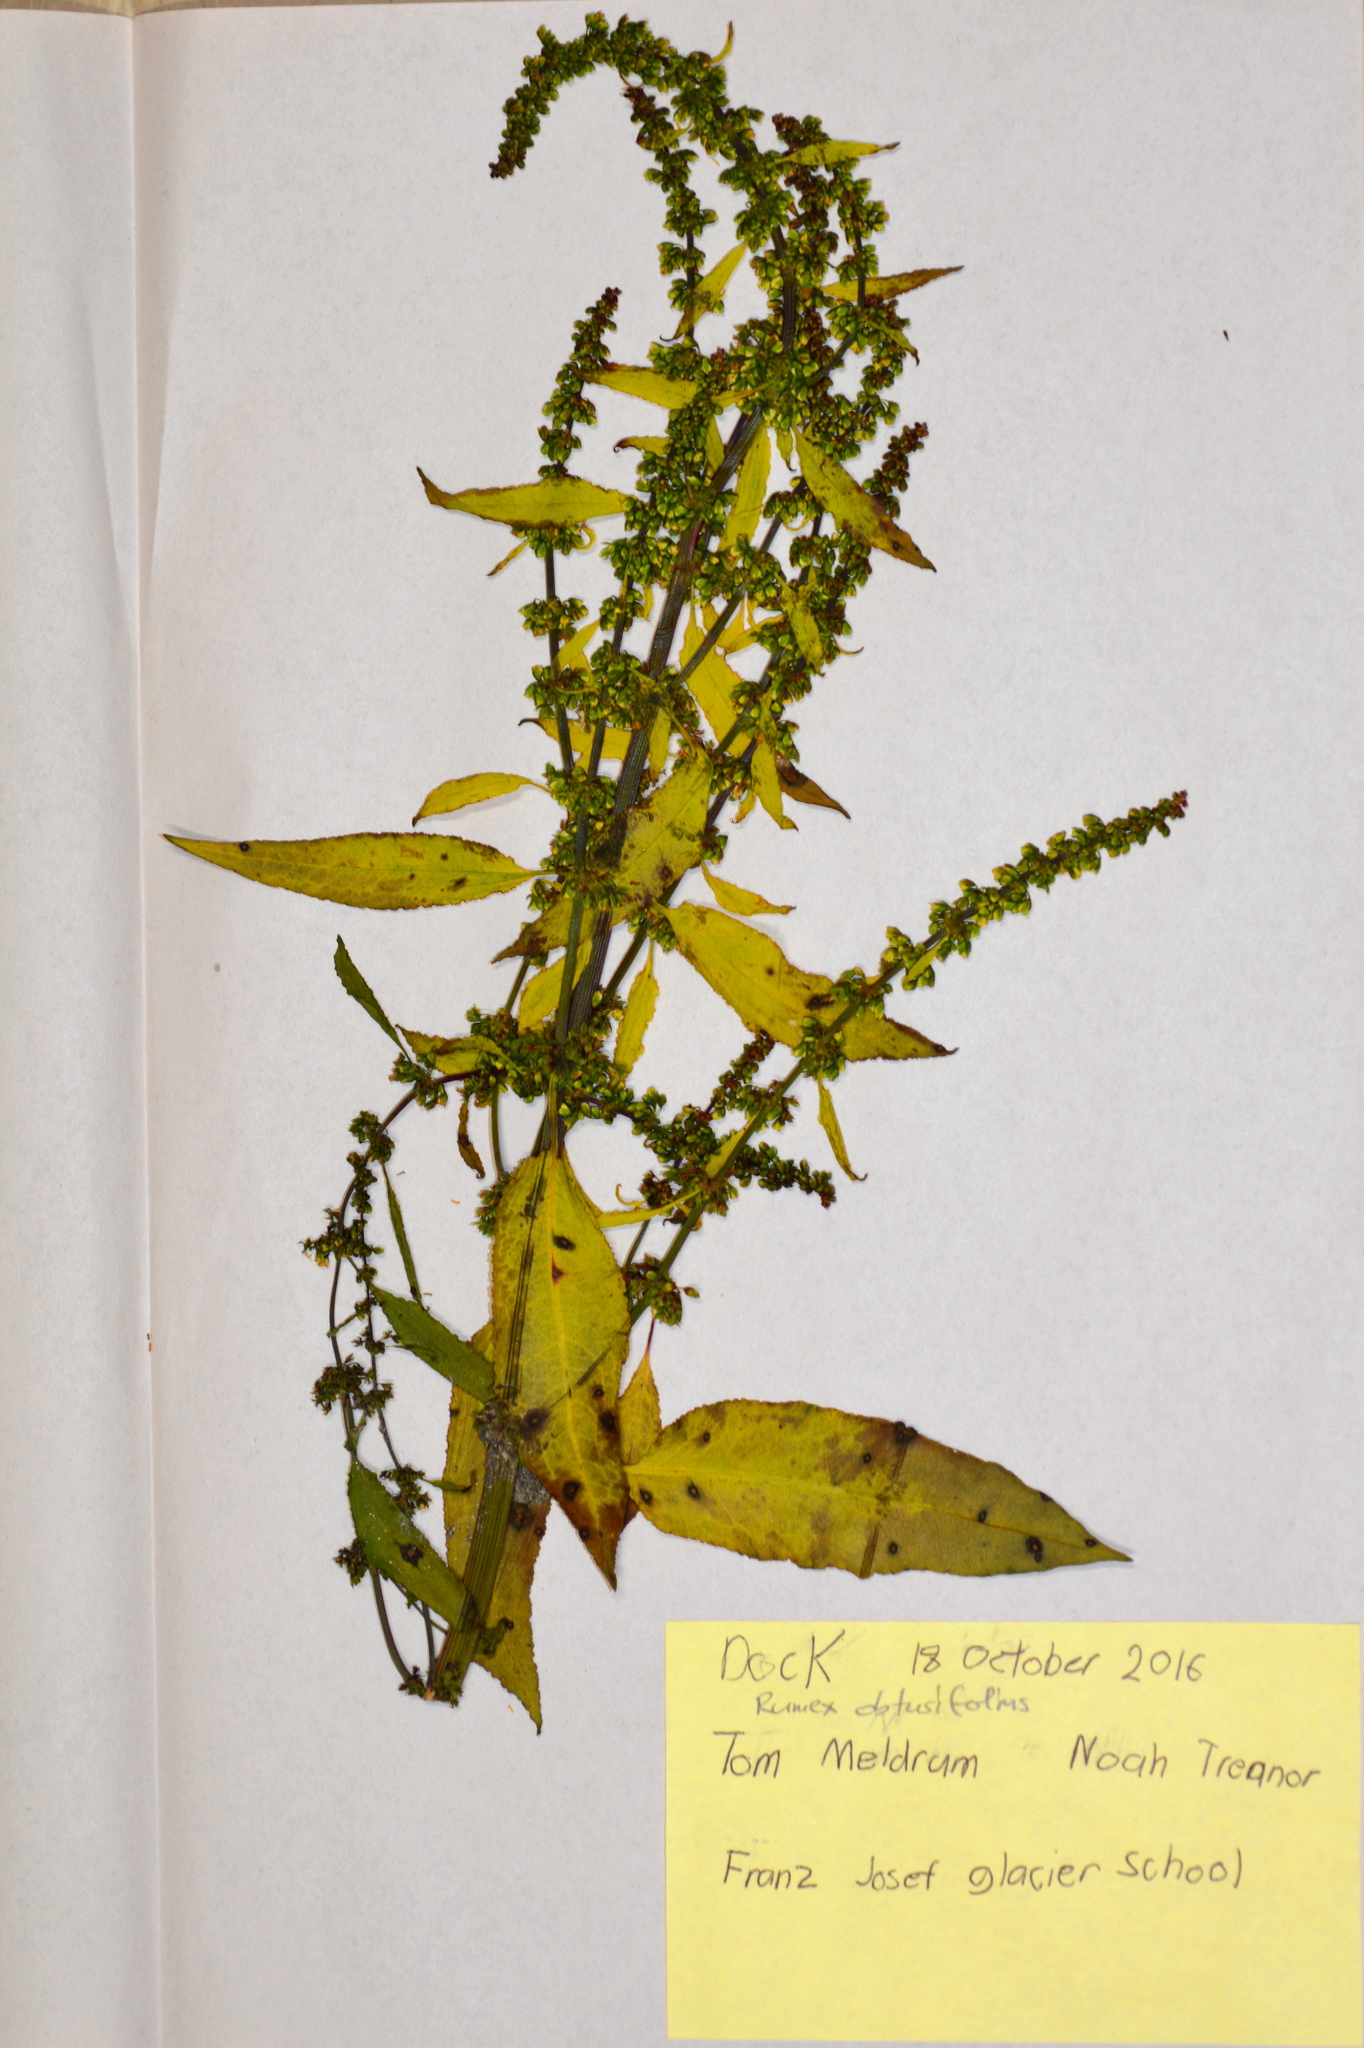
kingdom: Plantae
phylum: Tracheophyta
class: Magnoliopsida
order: Caryophyllales
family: Polygonaceae
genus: Rumex
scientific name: Rumex obtusifolius
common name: Bitter dock
